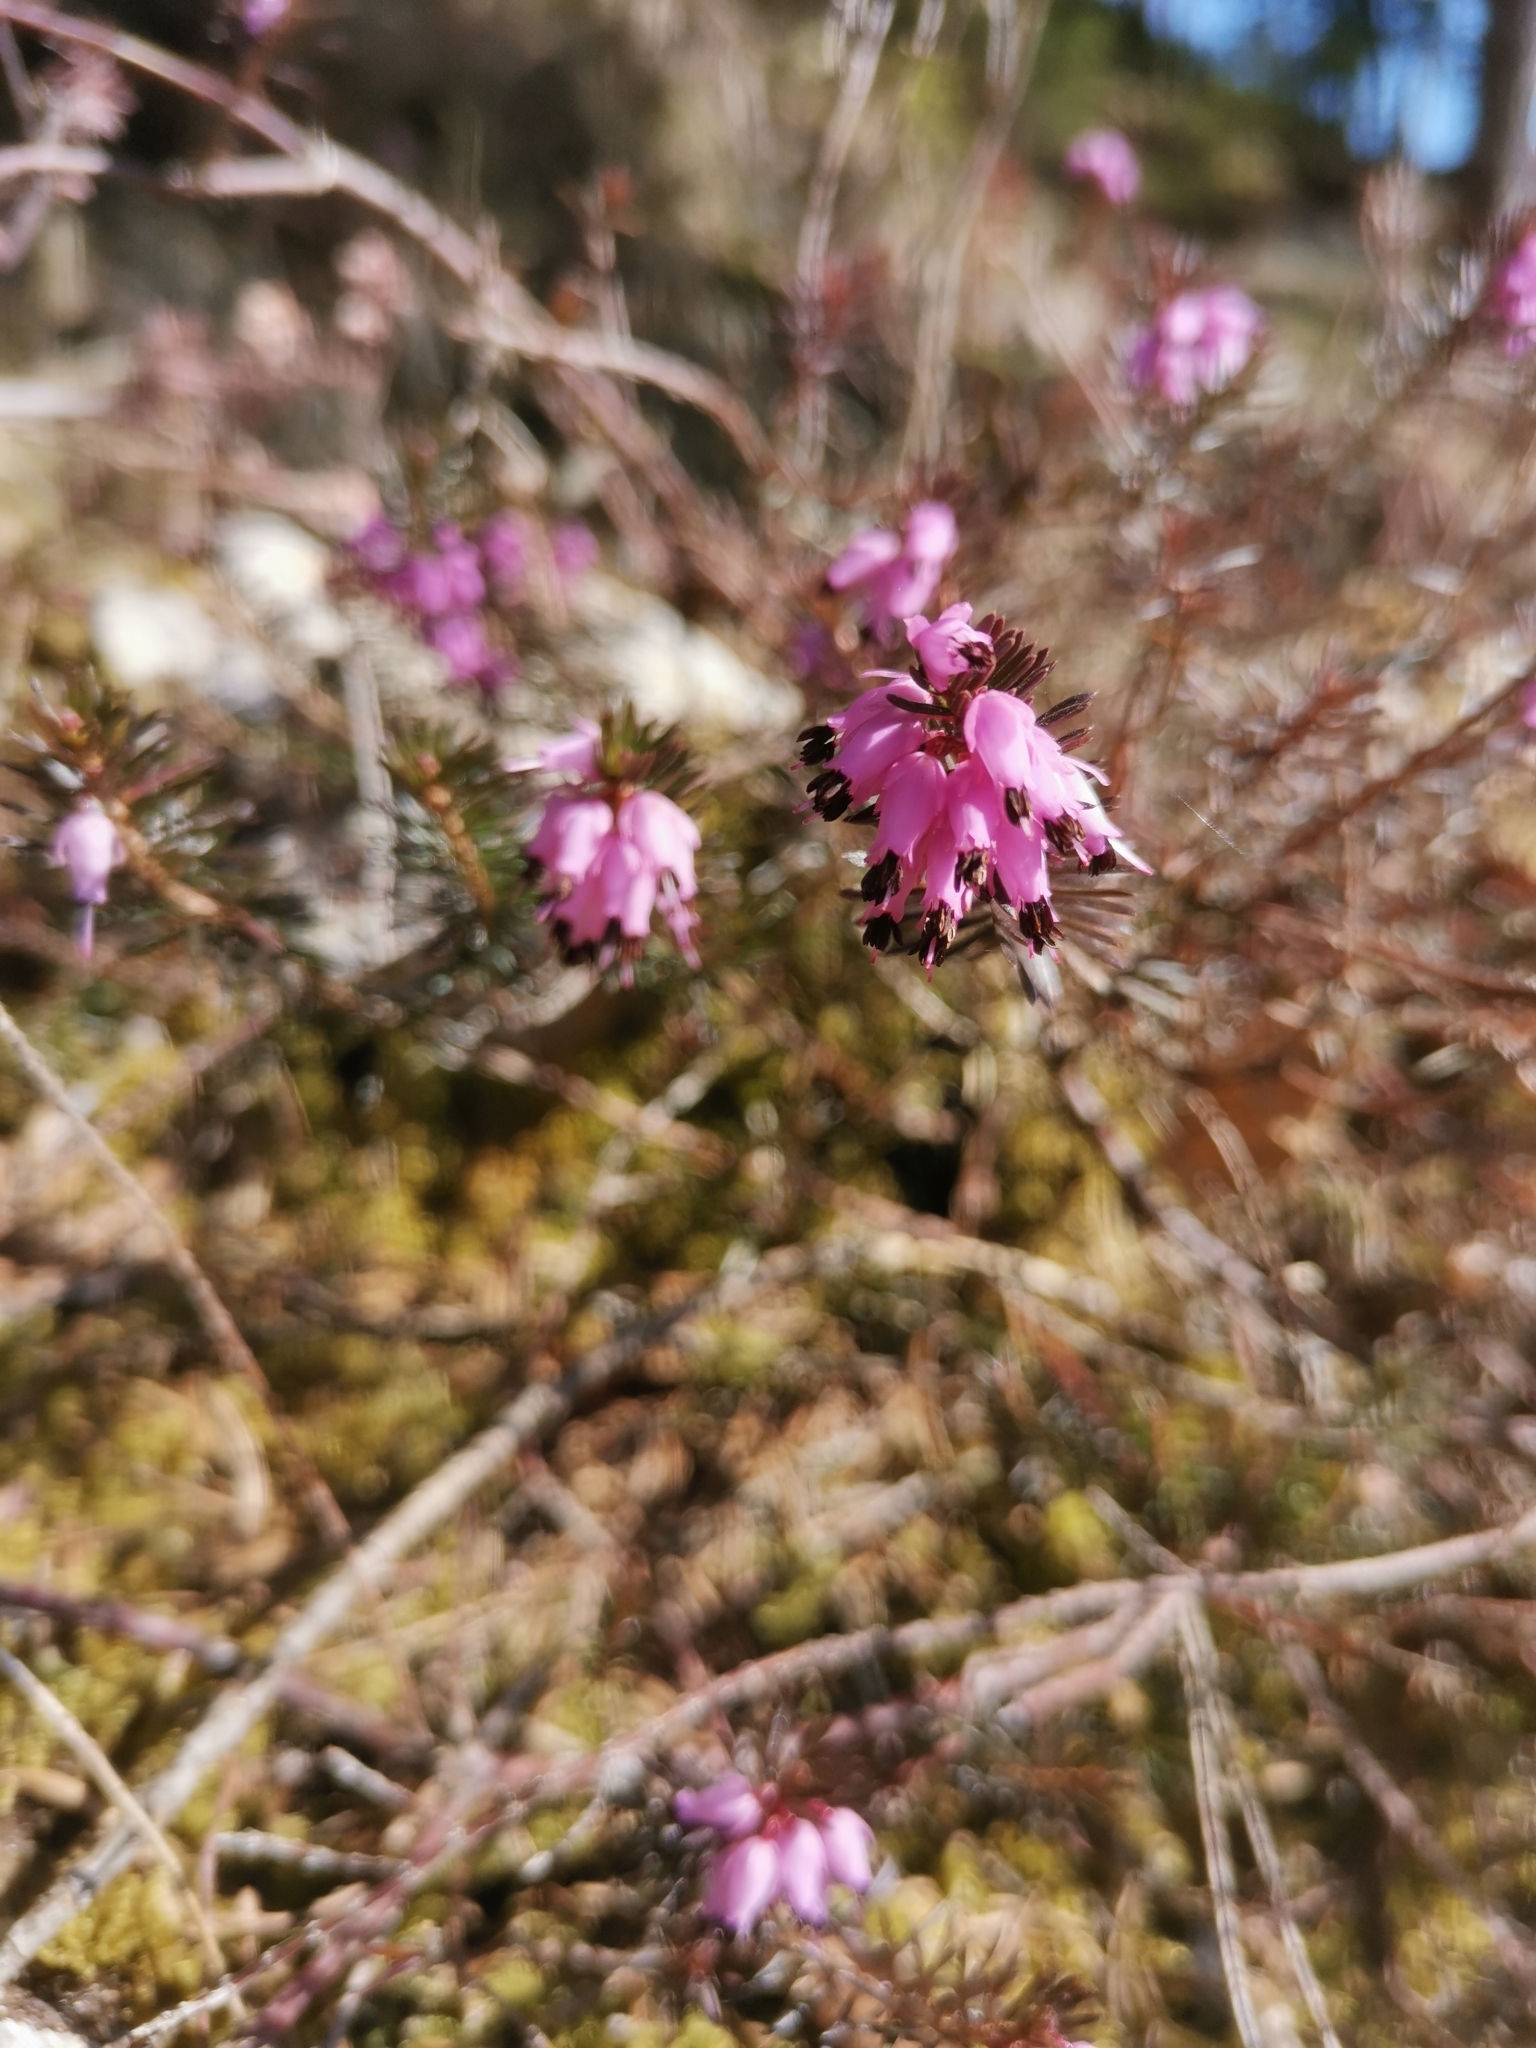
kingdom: Plantae
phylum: Tracheophyta
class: Magnoliopsida
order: Ericales
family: Ericaceae
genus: Erica
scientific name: Erica carnea
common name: Winter heath
